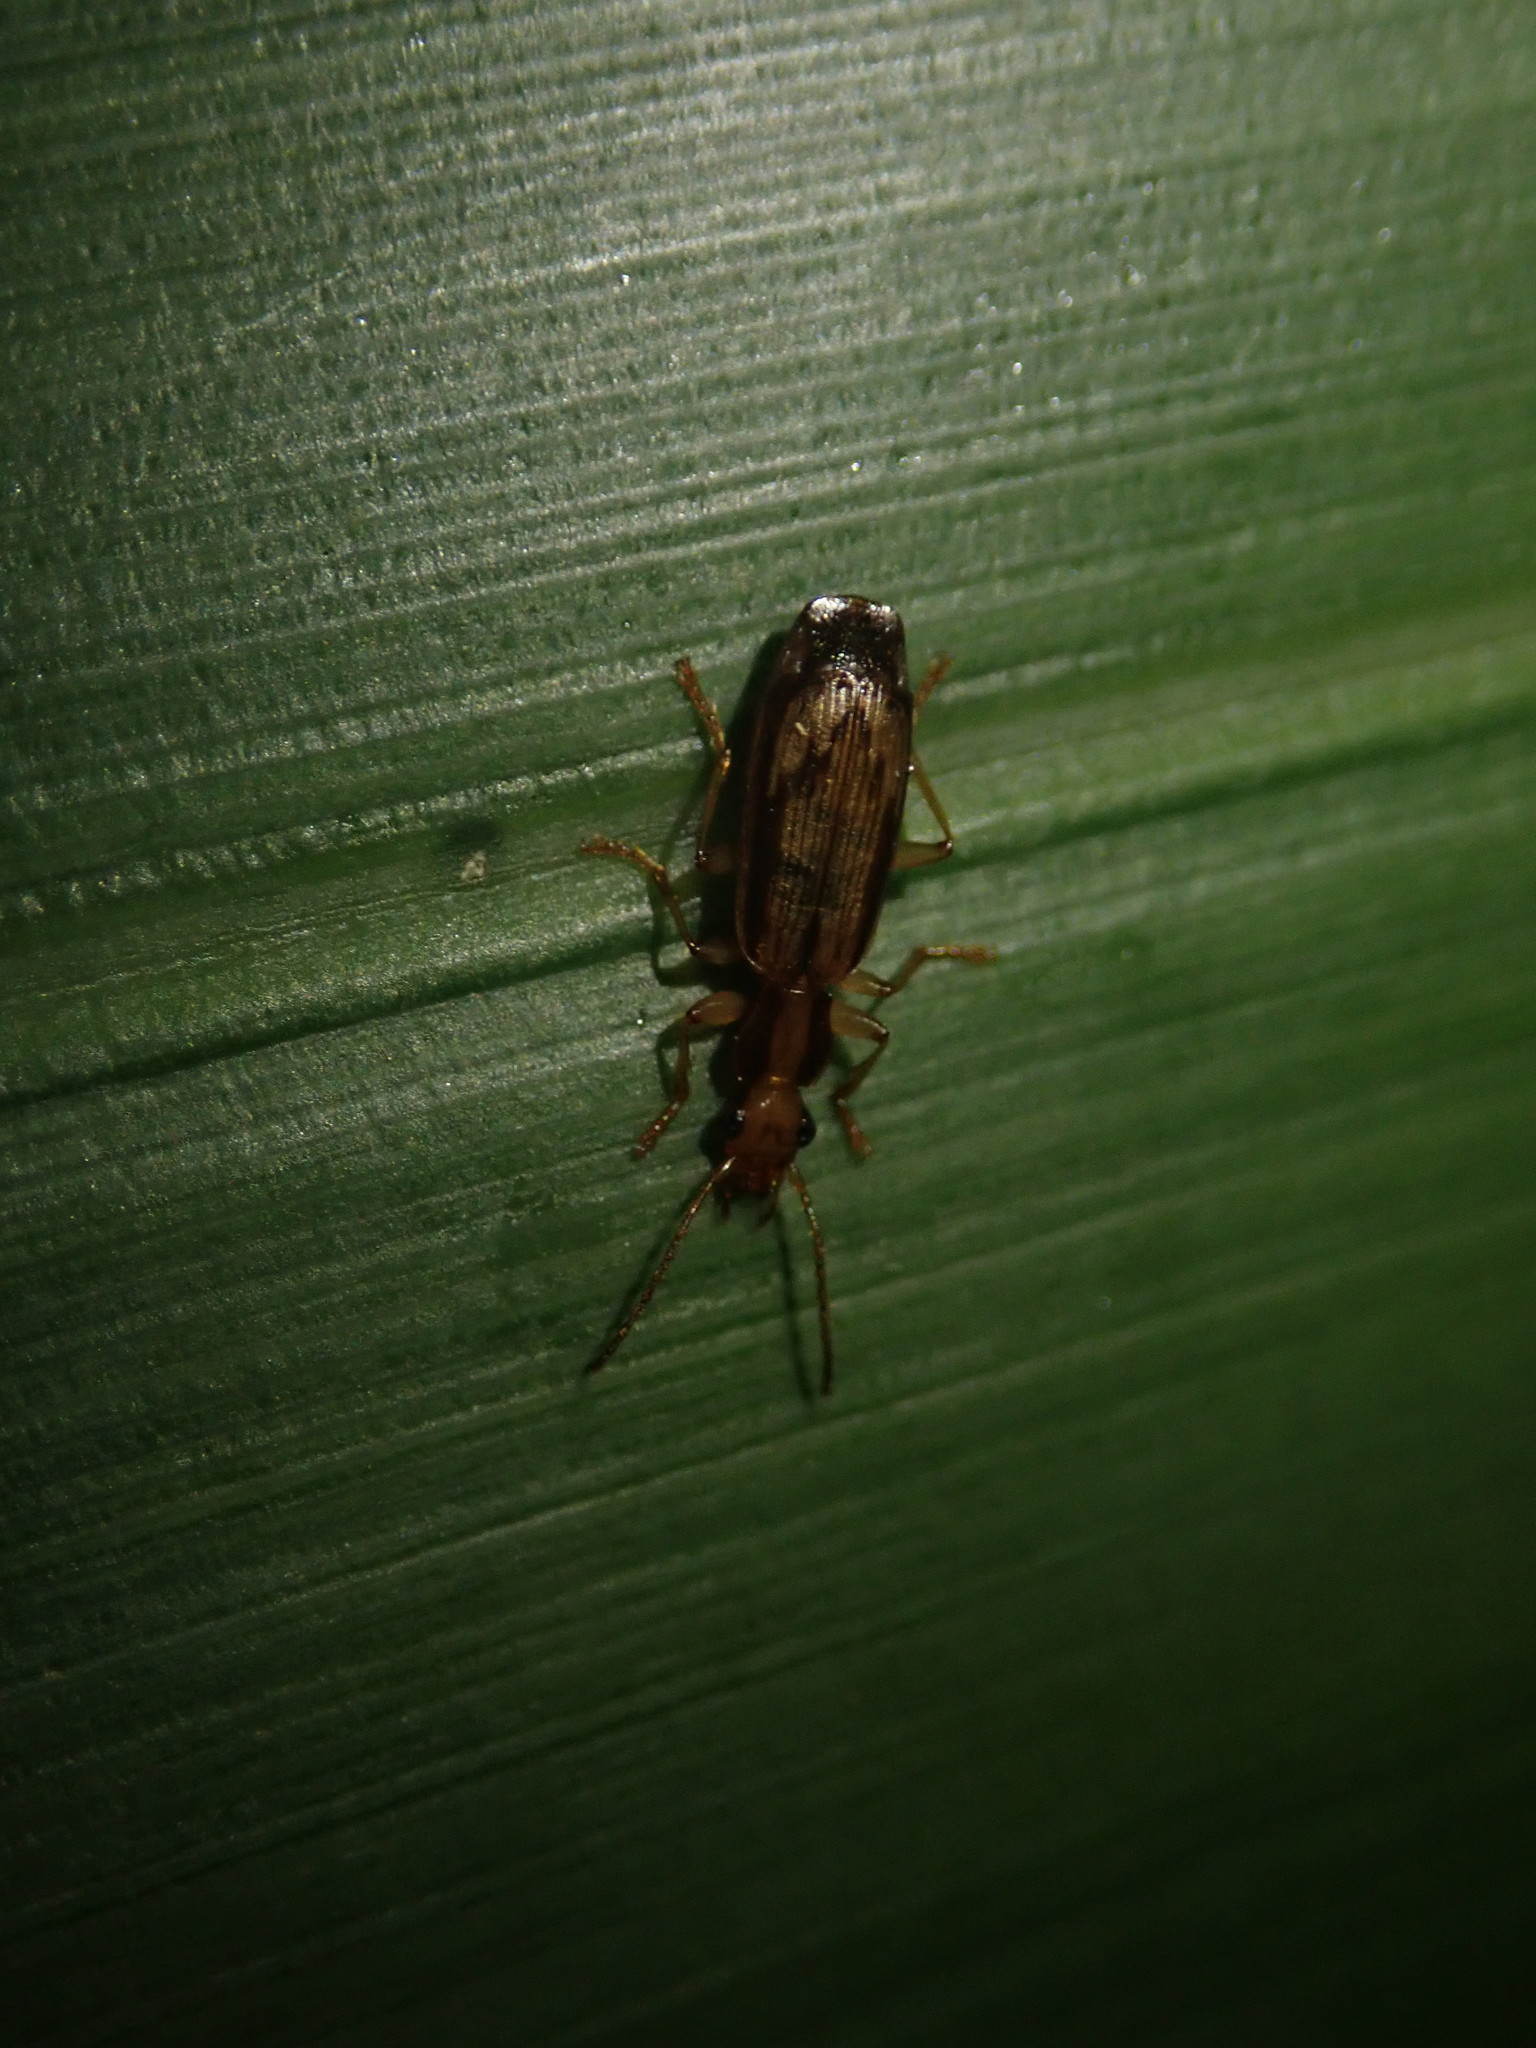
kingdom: Animalia
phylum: Arthropoda
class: Insecta
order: Coleoptera
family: Carabidae
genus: Demetrida
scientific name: Demetrida lineella
